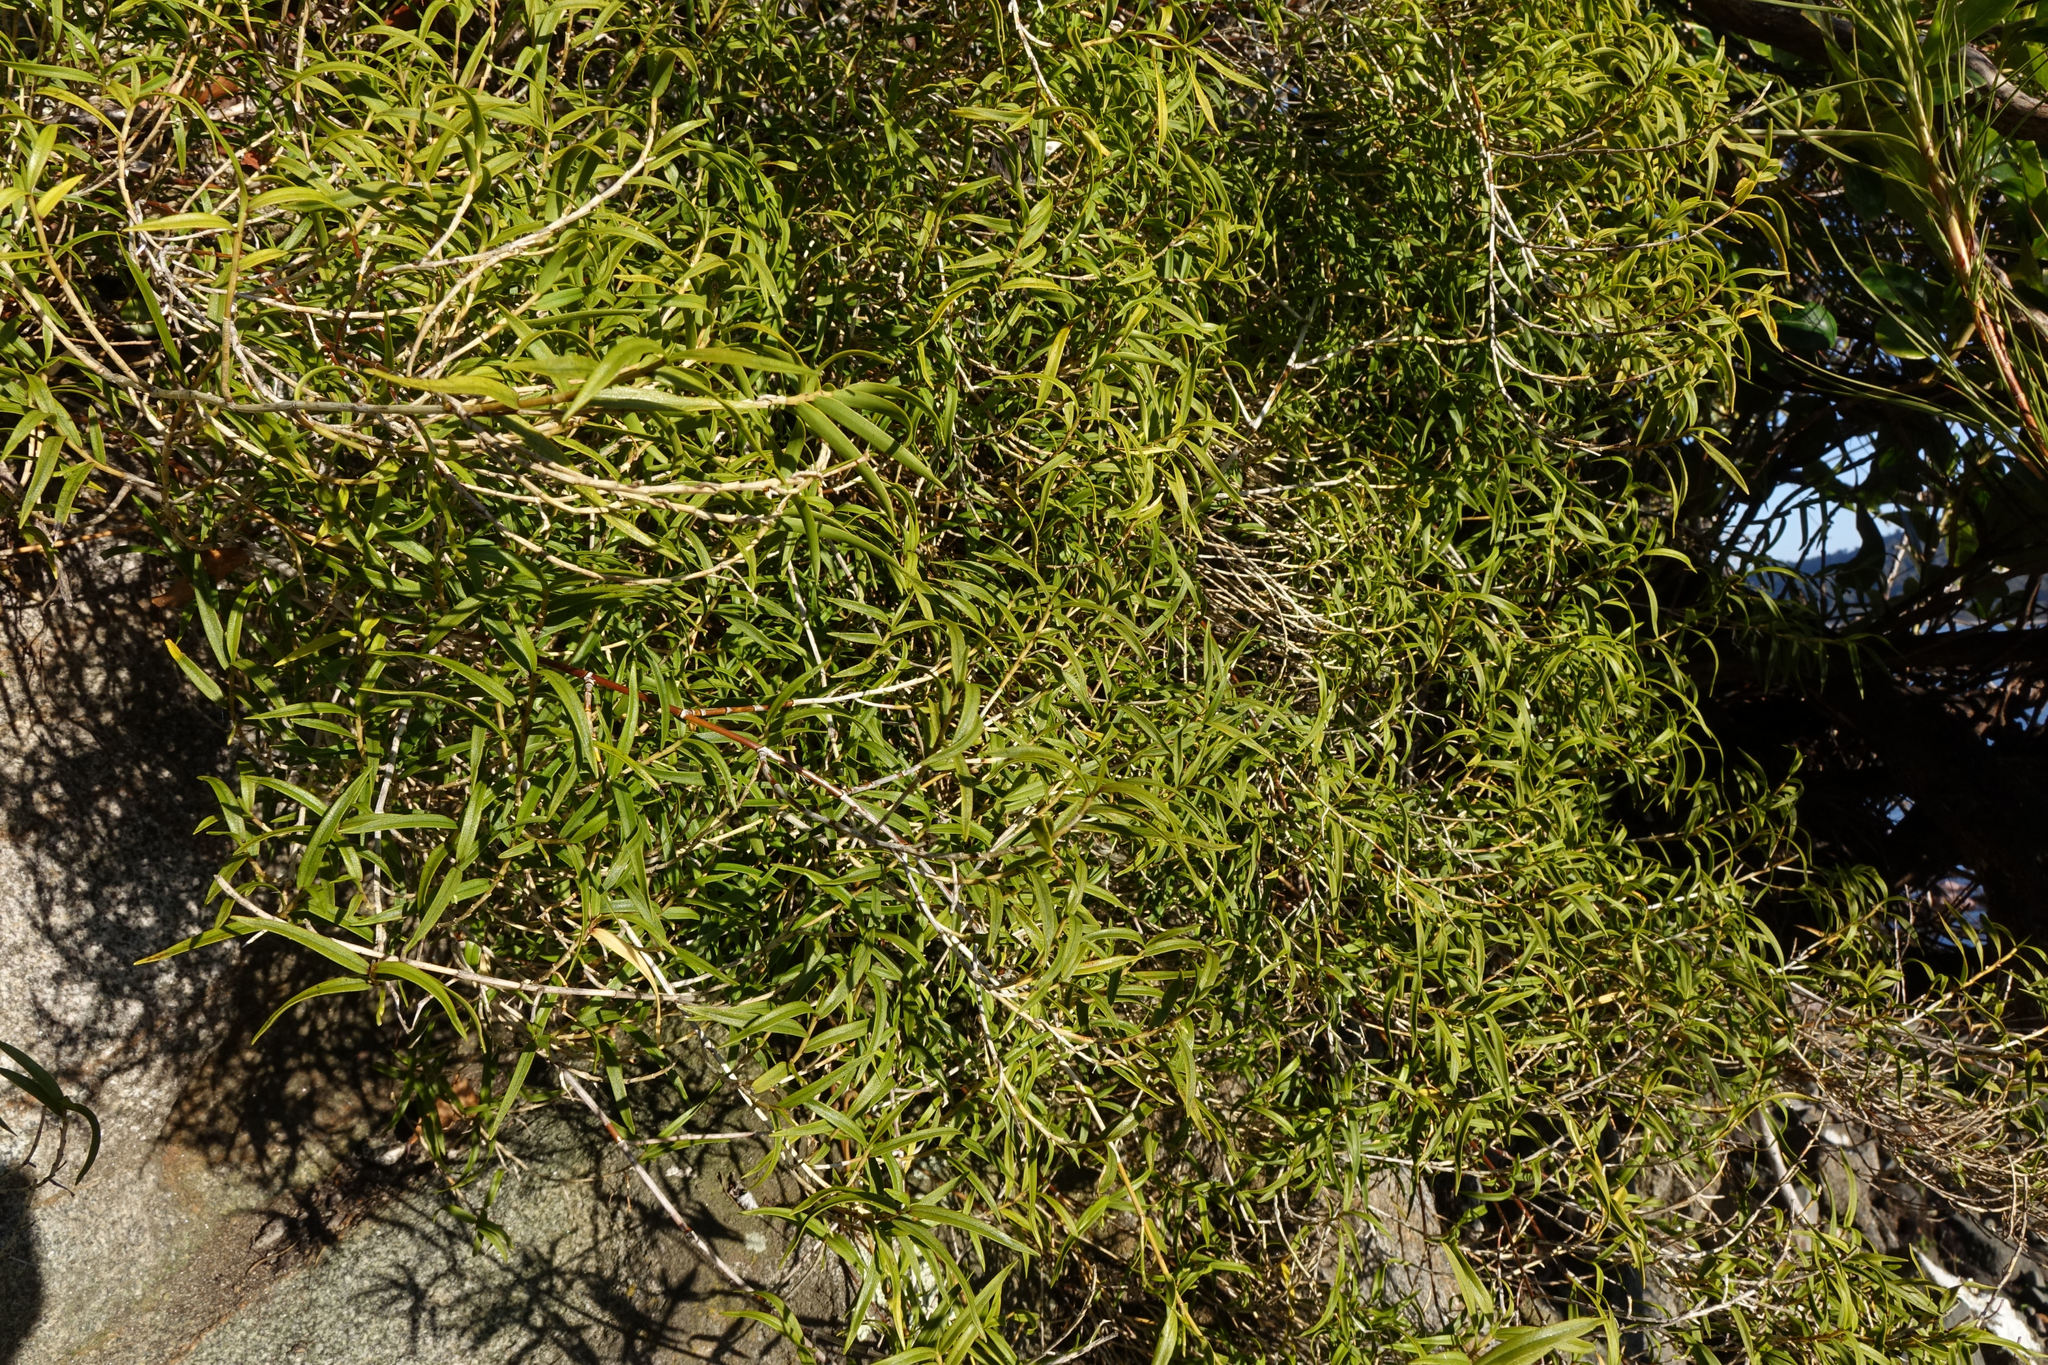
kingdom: Plantae
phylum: Tracheophyta
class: Liliopsida
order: Asparagales
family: Orchidaceae
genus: Dendrobium
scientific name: Dendrobium cunninghamii
